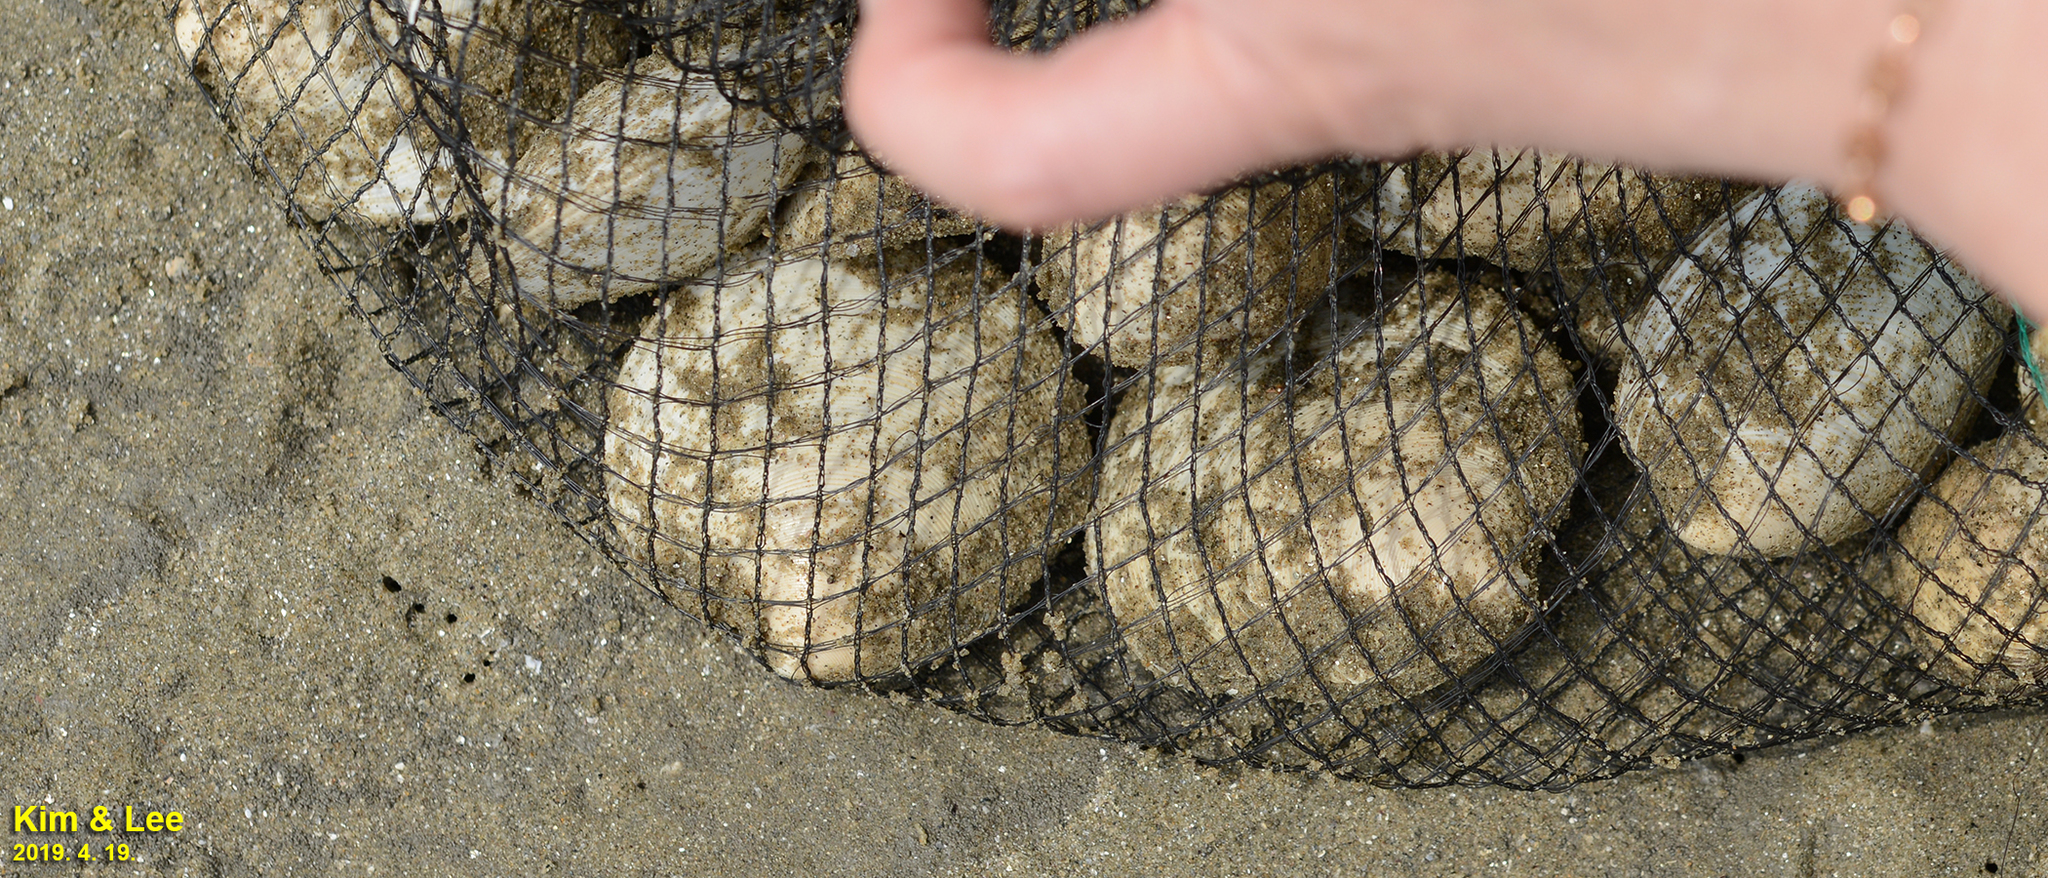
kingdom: Animalia
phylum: Mollusca
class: Bivalvia
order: Venerida
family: Veneridae
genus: Dosinia
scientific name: Dosinia japonica
